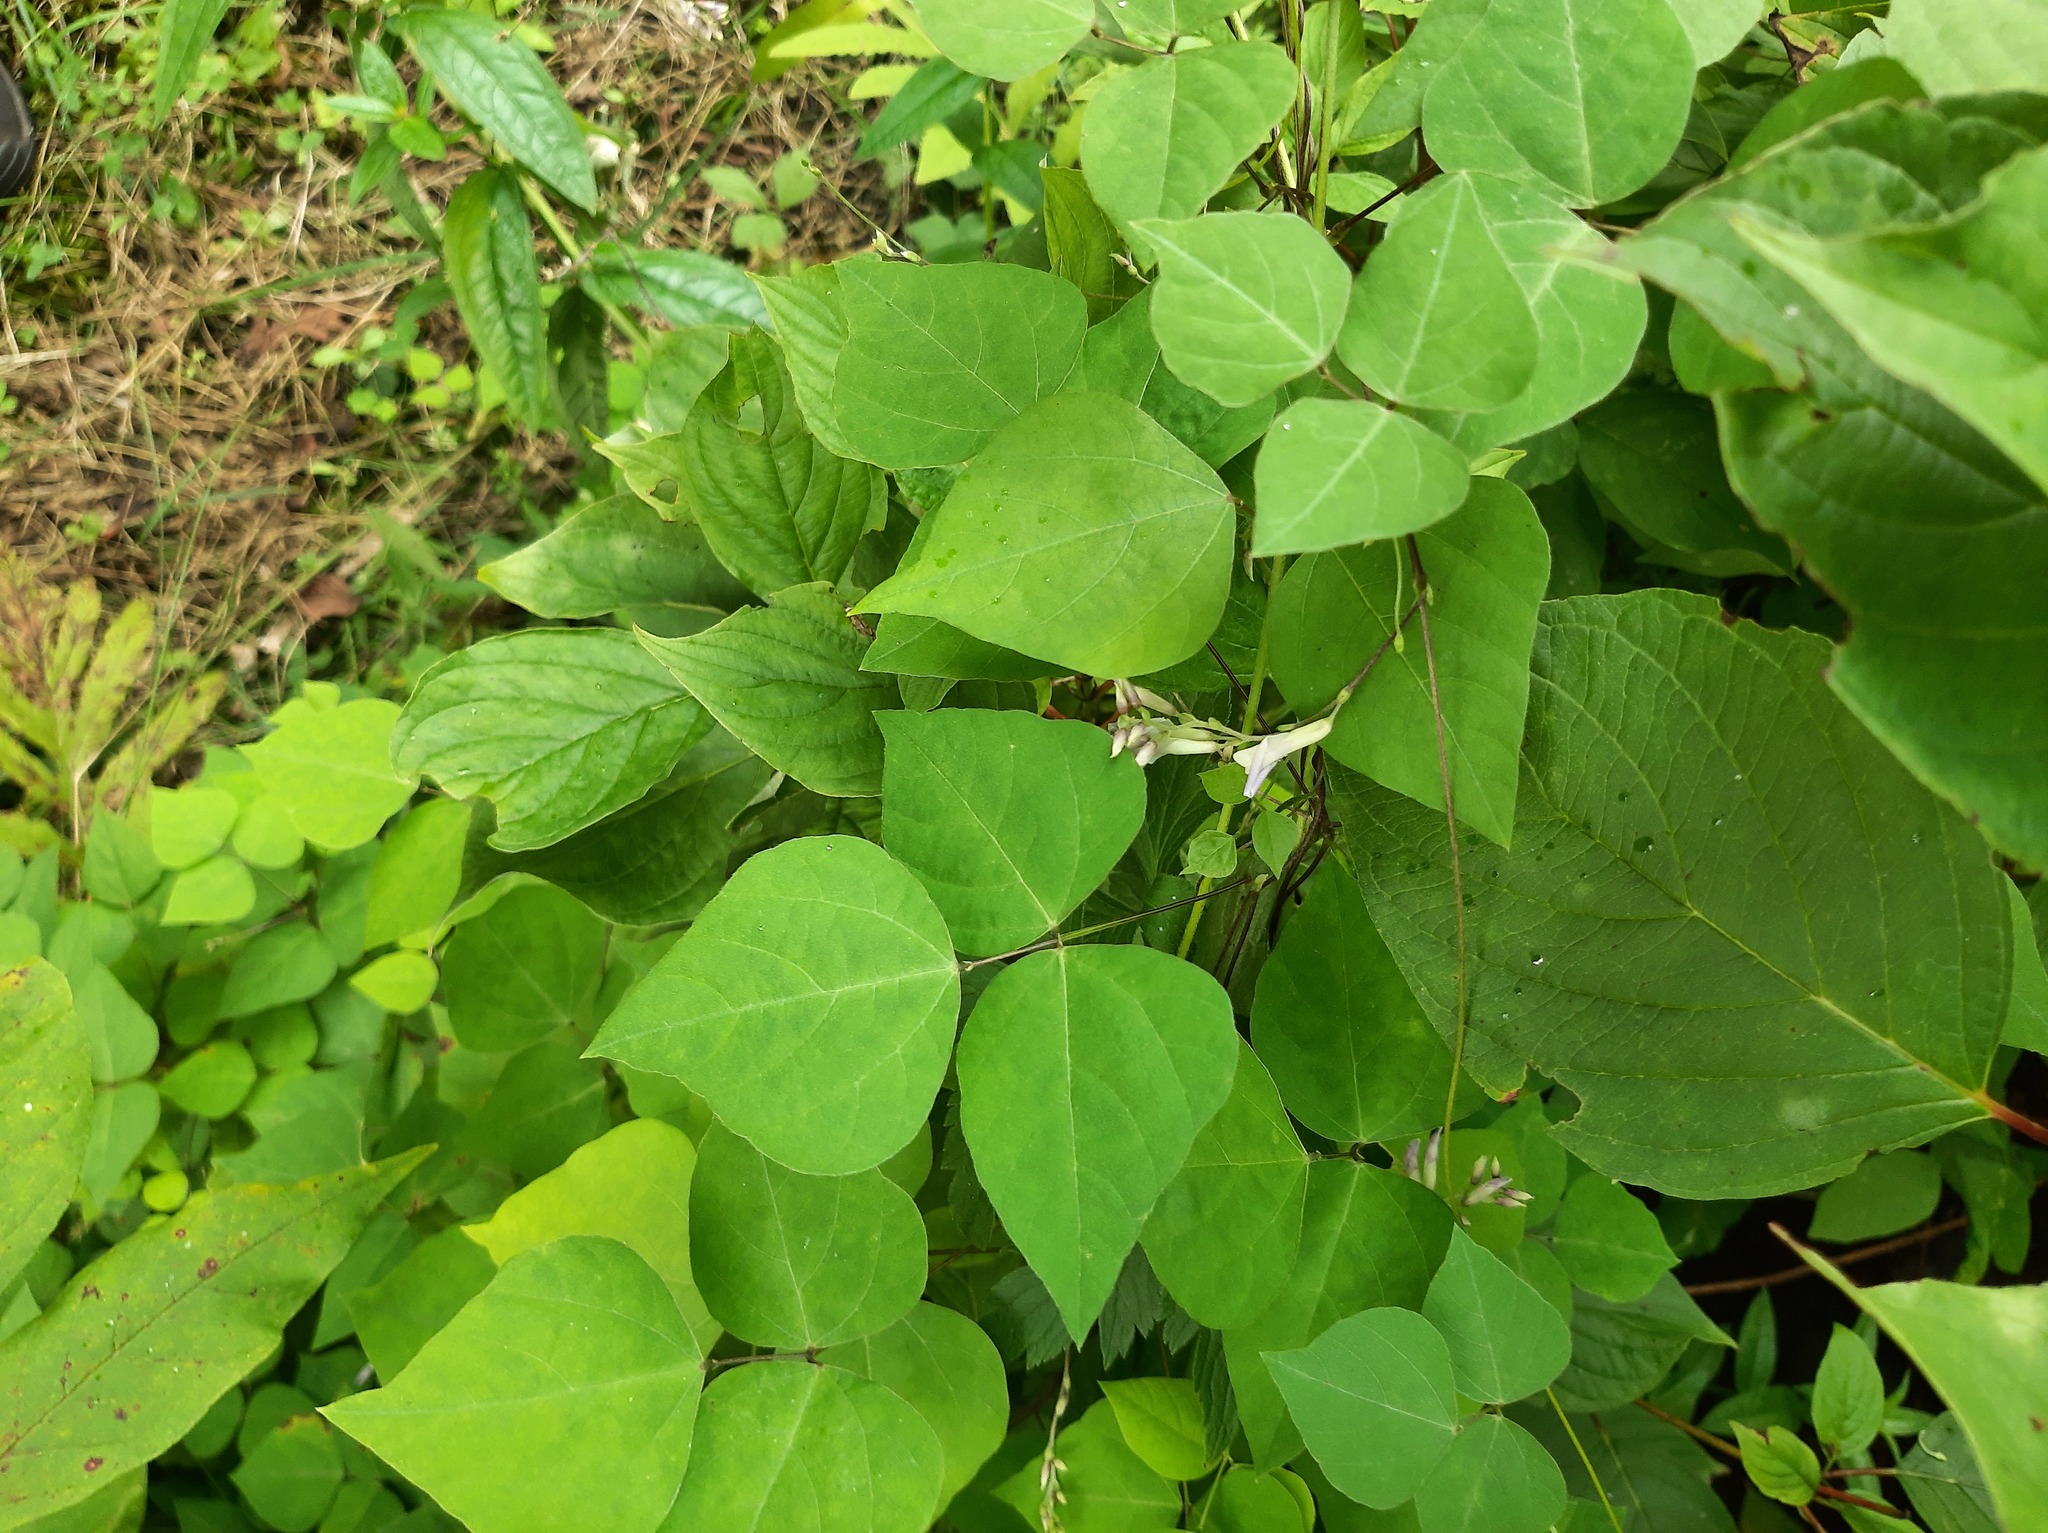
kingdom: Plantae
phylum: Tracheophyta
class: Magnoliopsida
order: Fabales
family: Fabaceae
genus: Amphicarpaea
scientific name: Amphicarpaea bracteata
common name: American hog peanut
